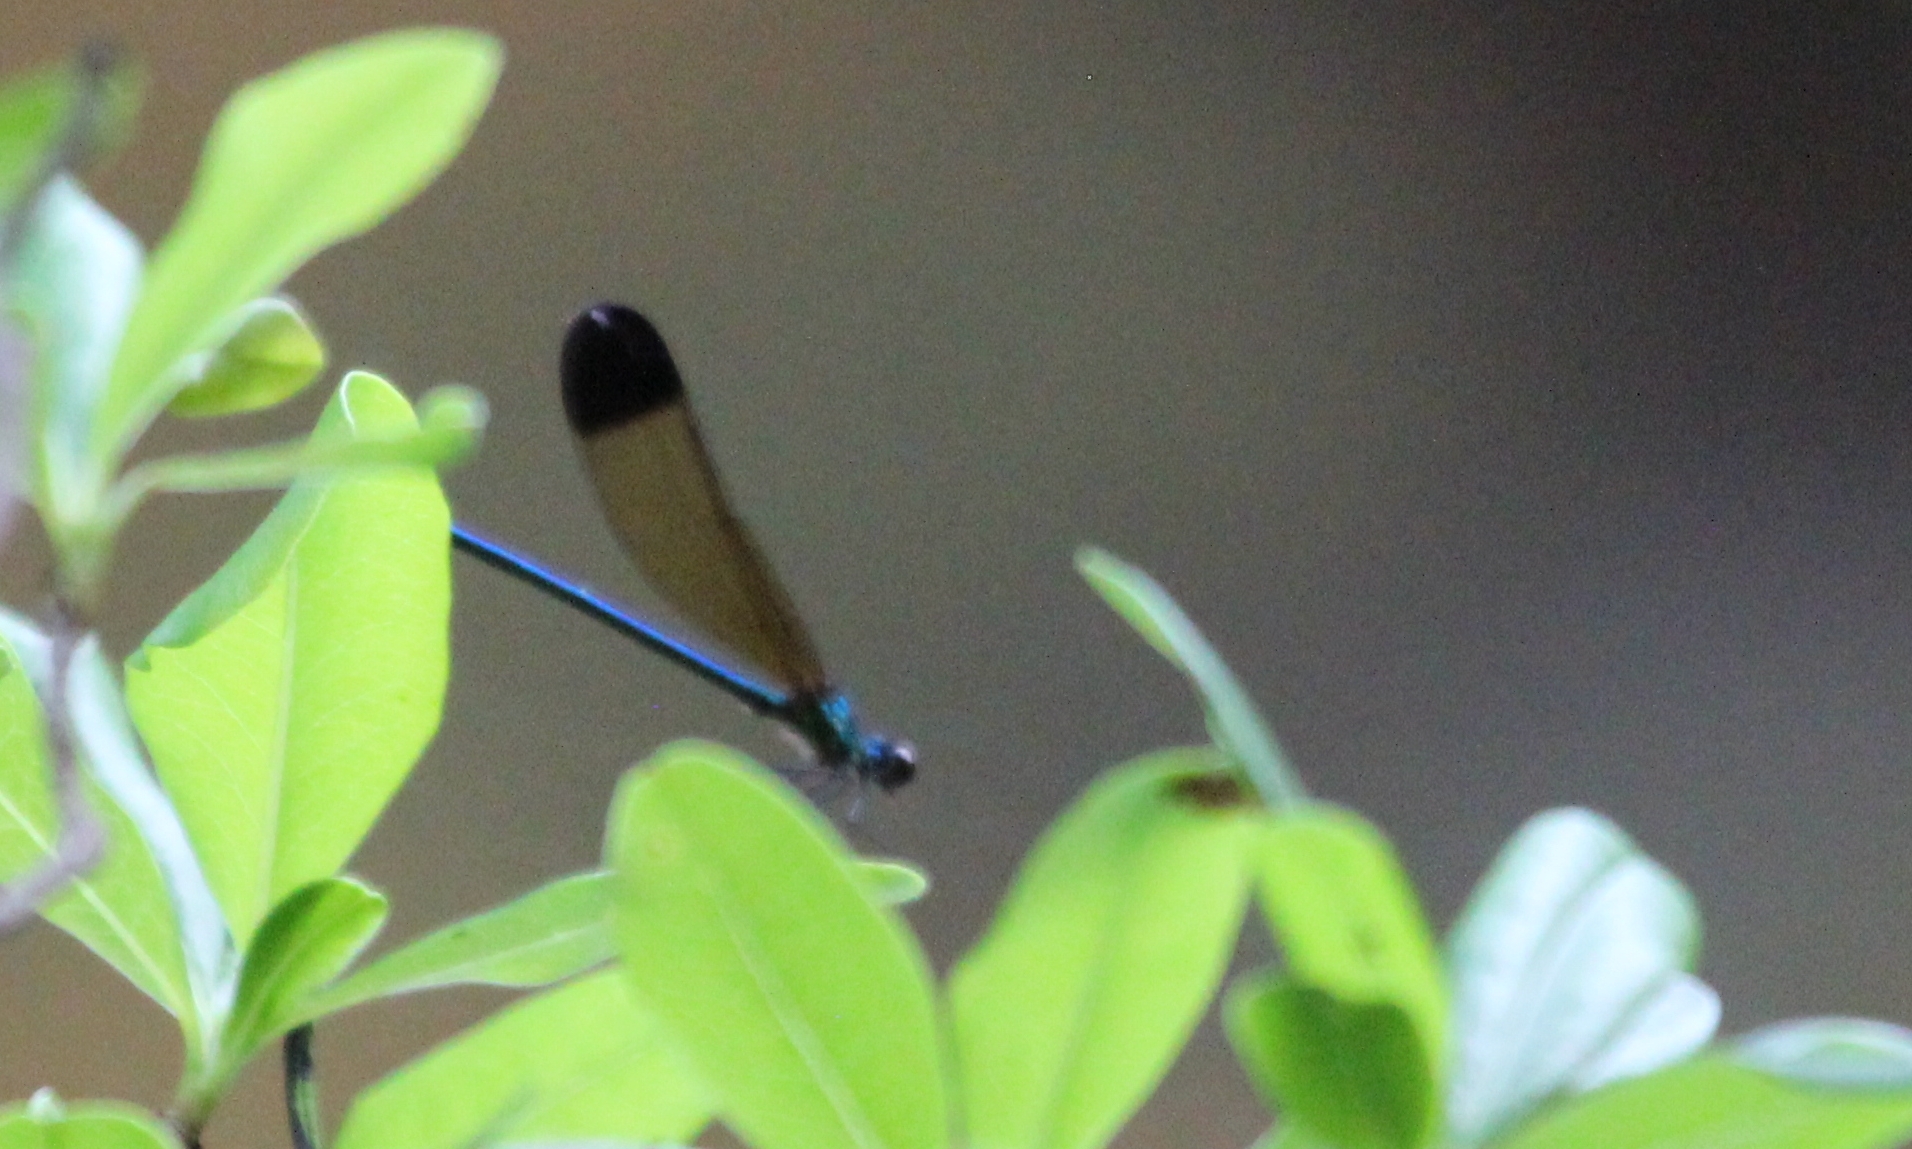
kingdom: Animalia
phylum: Arthropoda
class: Insecta
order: Odonata
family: Calopterygidae
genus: Calopteryx
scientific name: Calopteryx dimidiata
